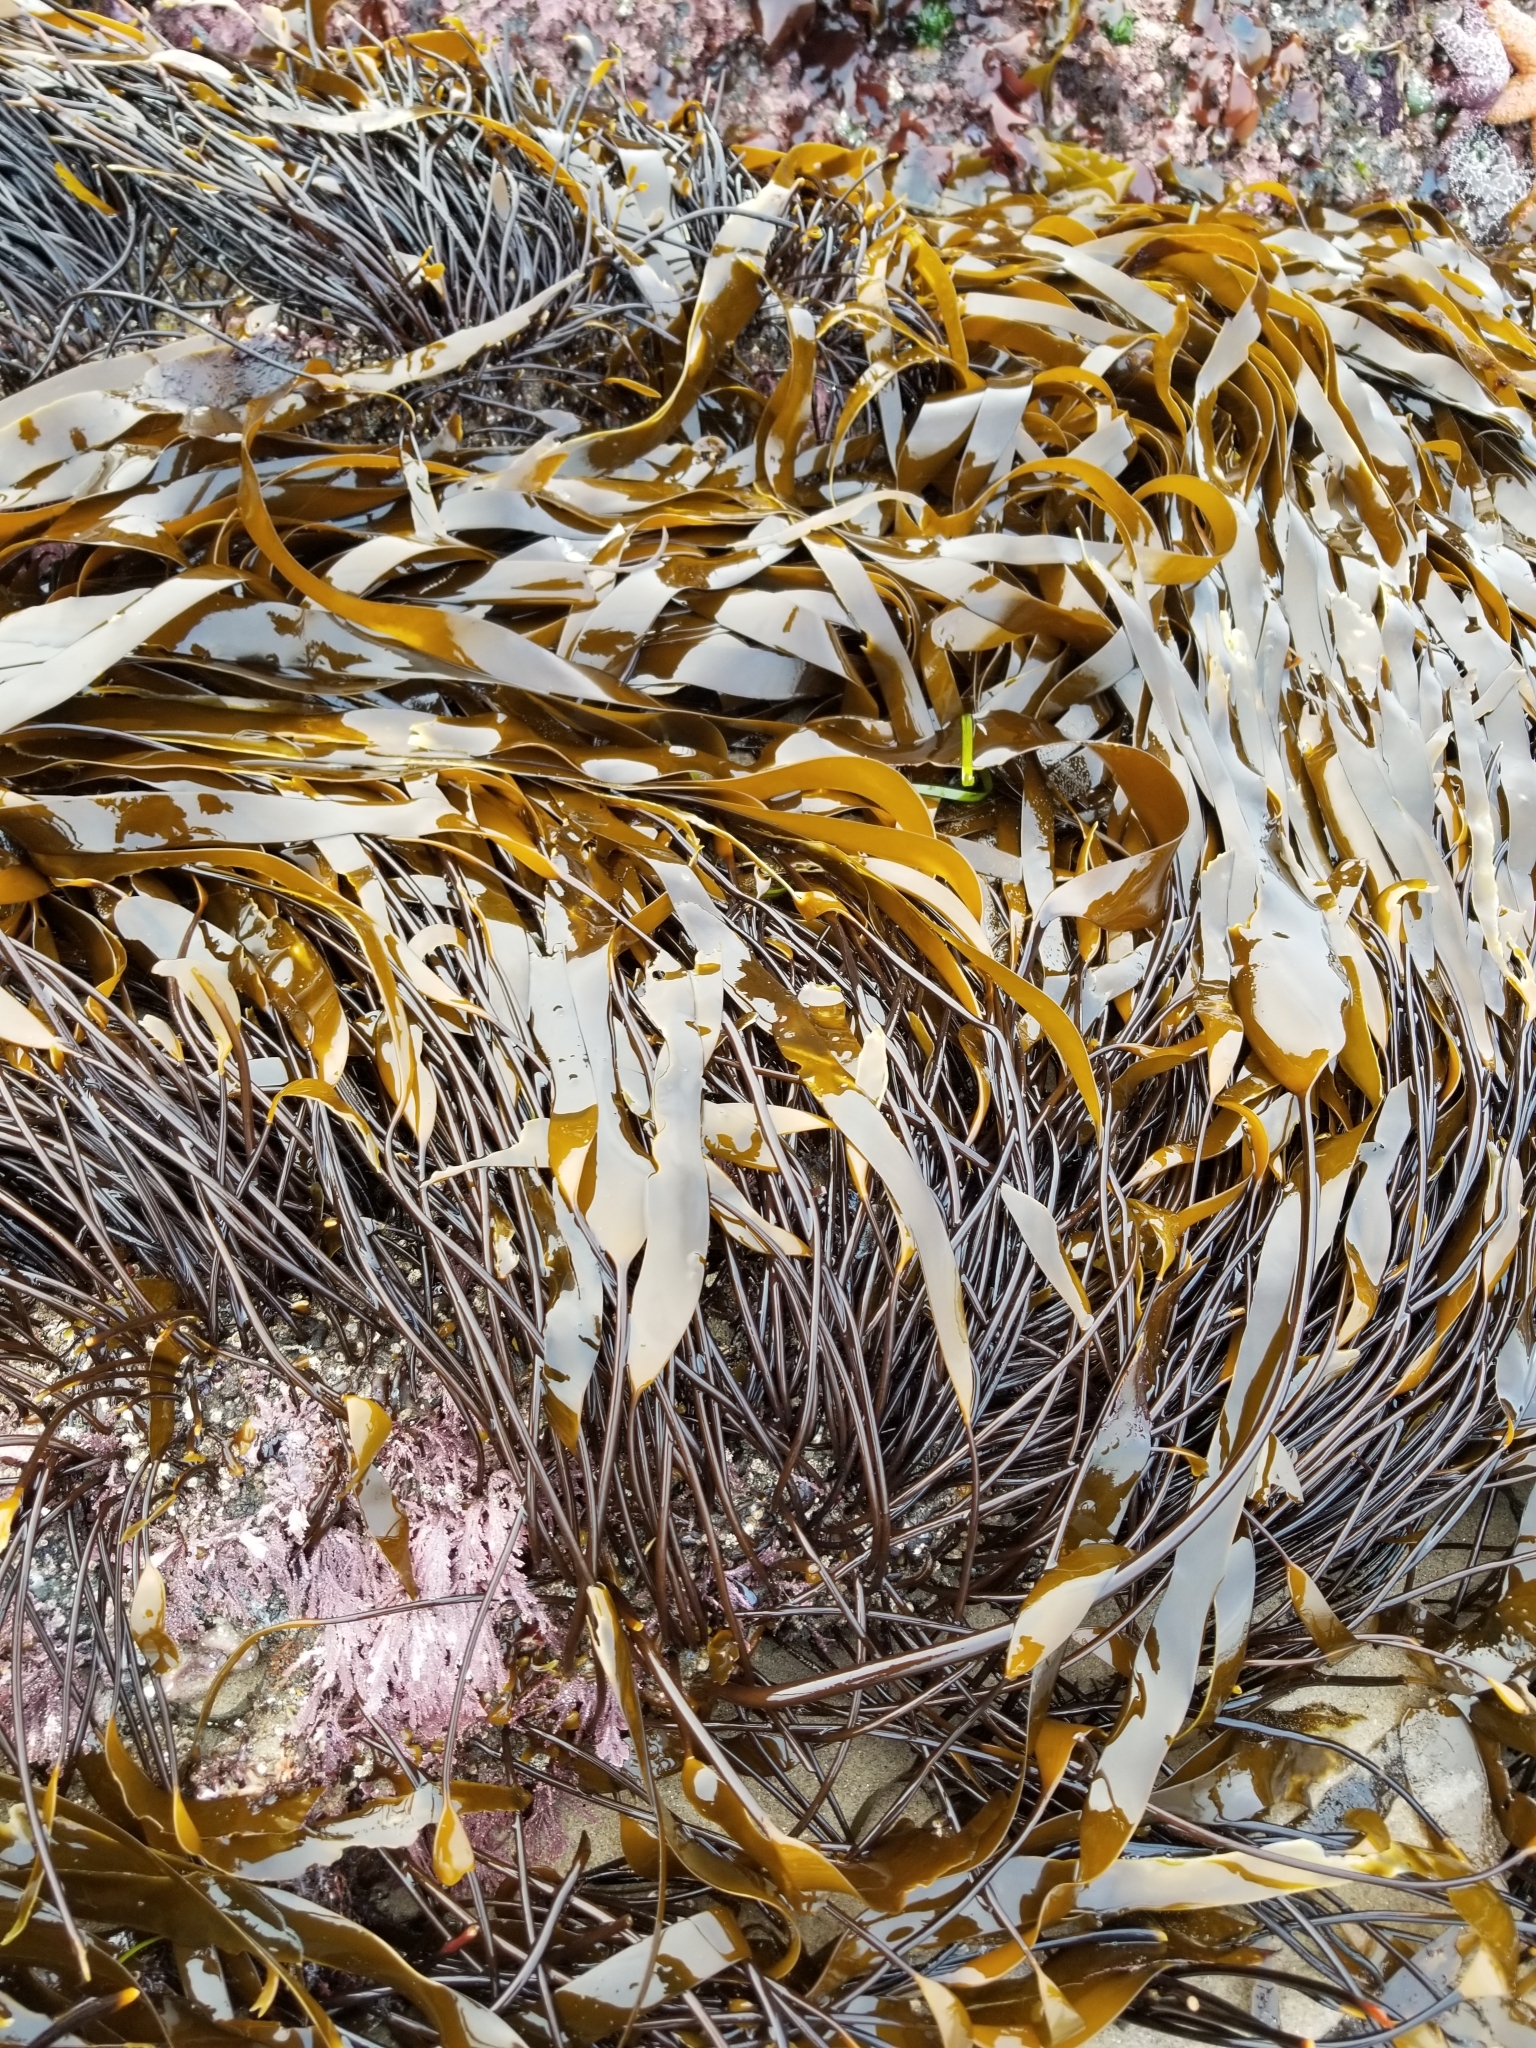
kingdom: Chromista
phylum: Ochrophyta
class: Phaeophyceae
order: Laminariales
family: Laminariaceae
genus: Laminaria
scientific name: Laminaria sinclairii
